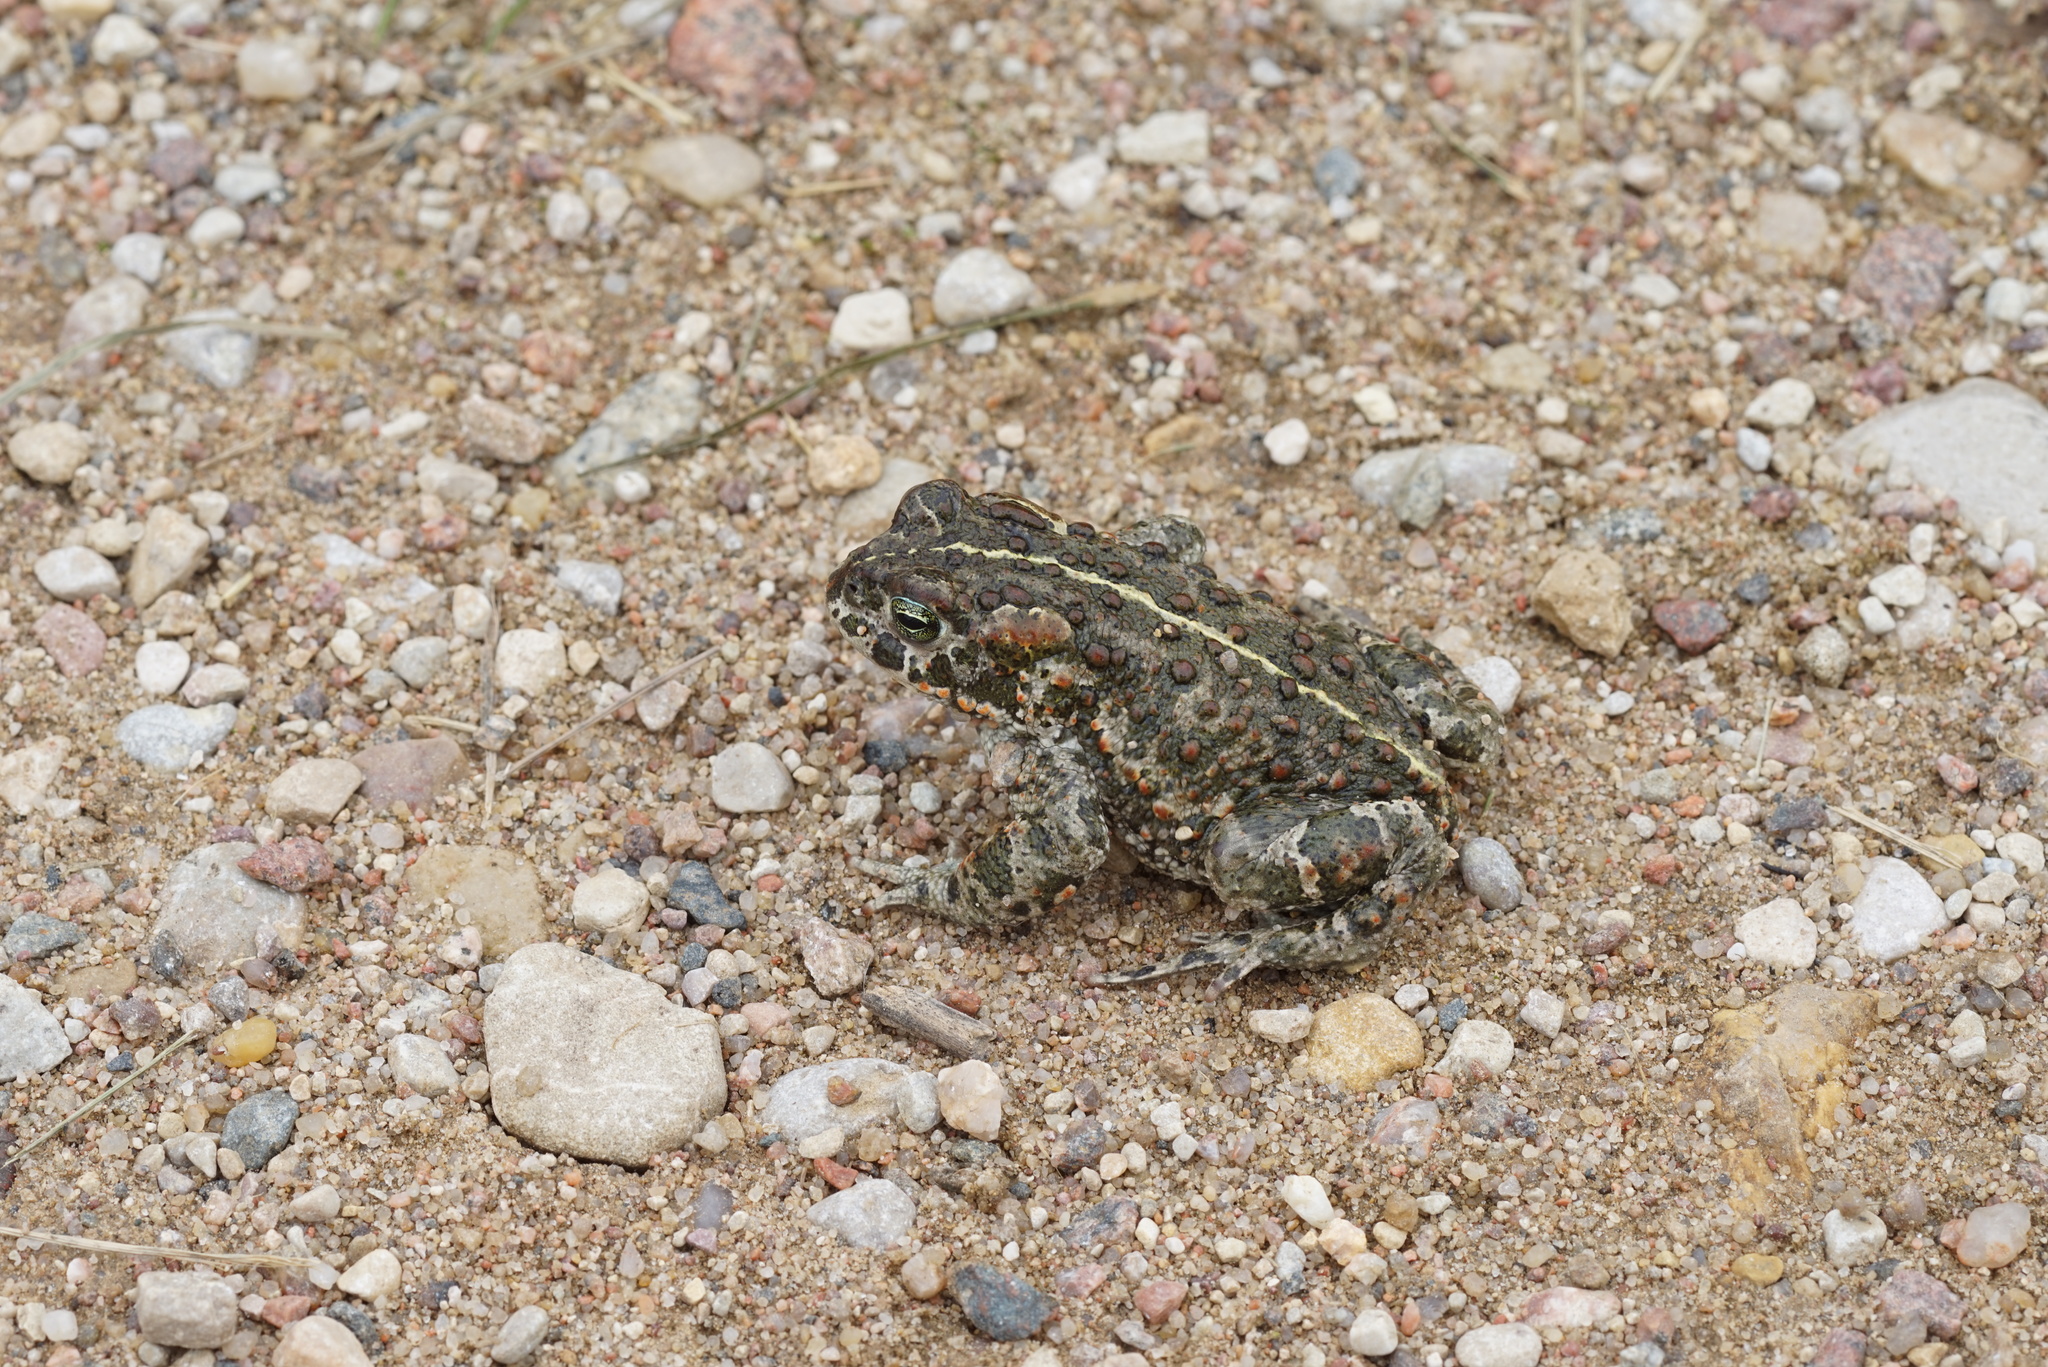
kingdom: Animalia
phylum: Chordata
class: Amphibia
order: Anura
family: Bufonidae
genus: Epidalea
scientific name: Epidalea calamita
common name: Natterjack toad
